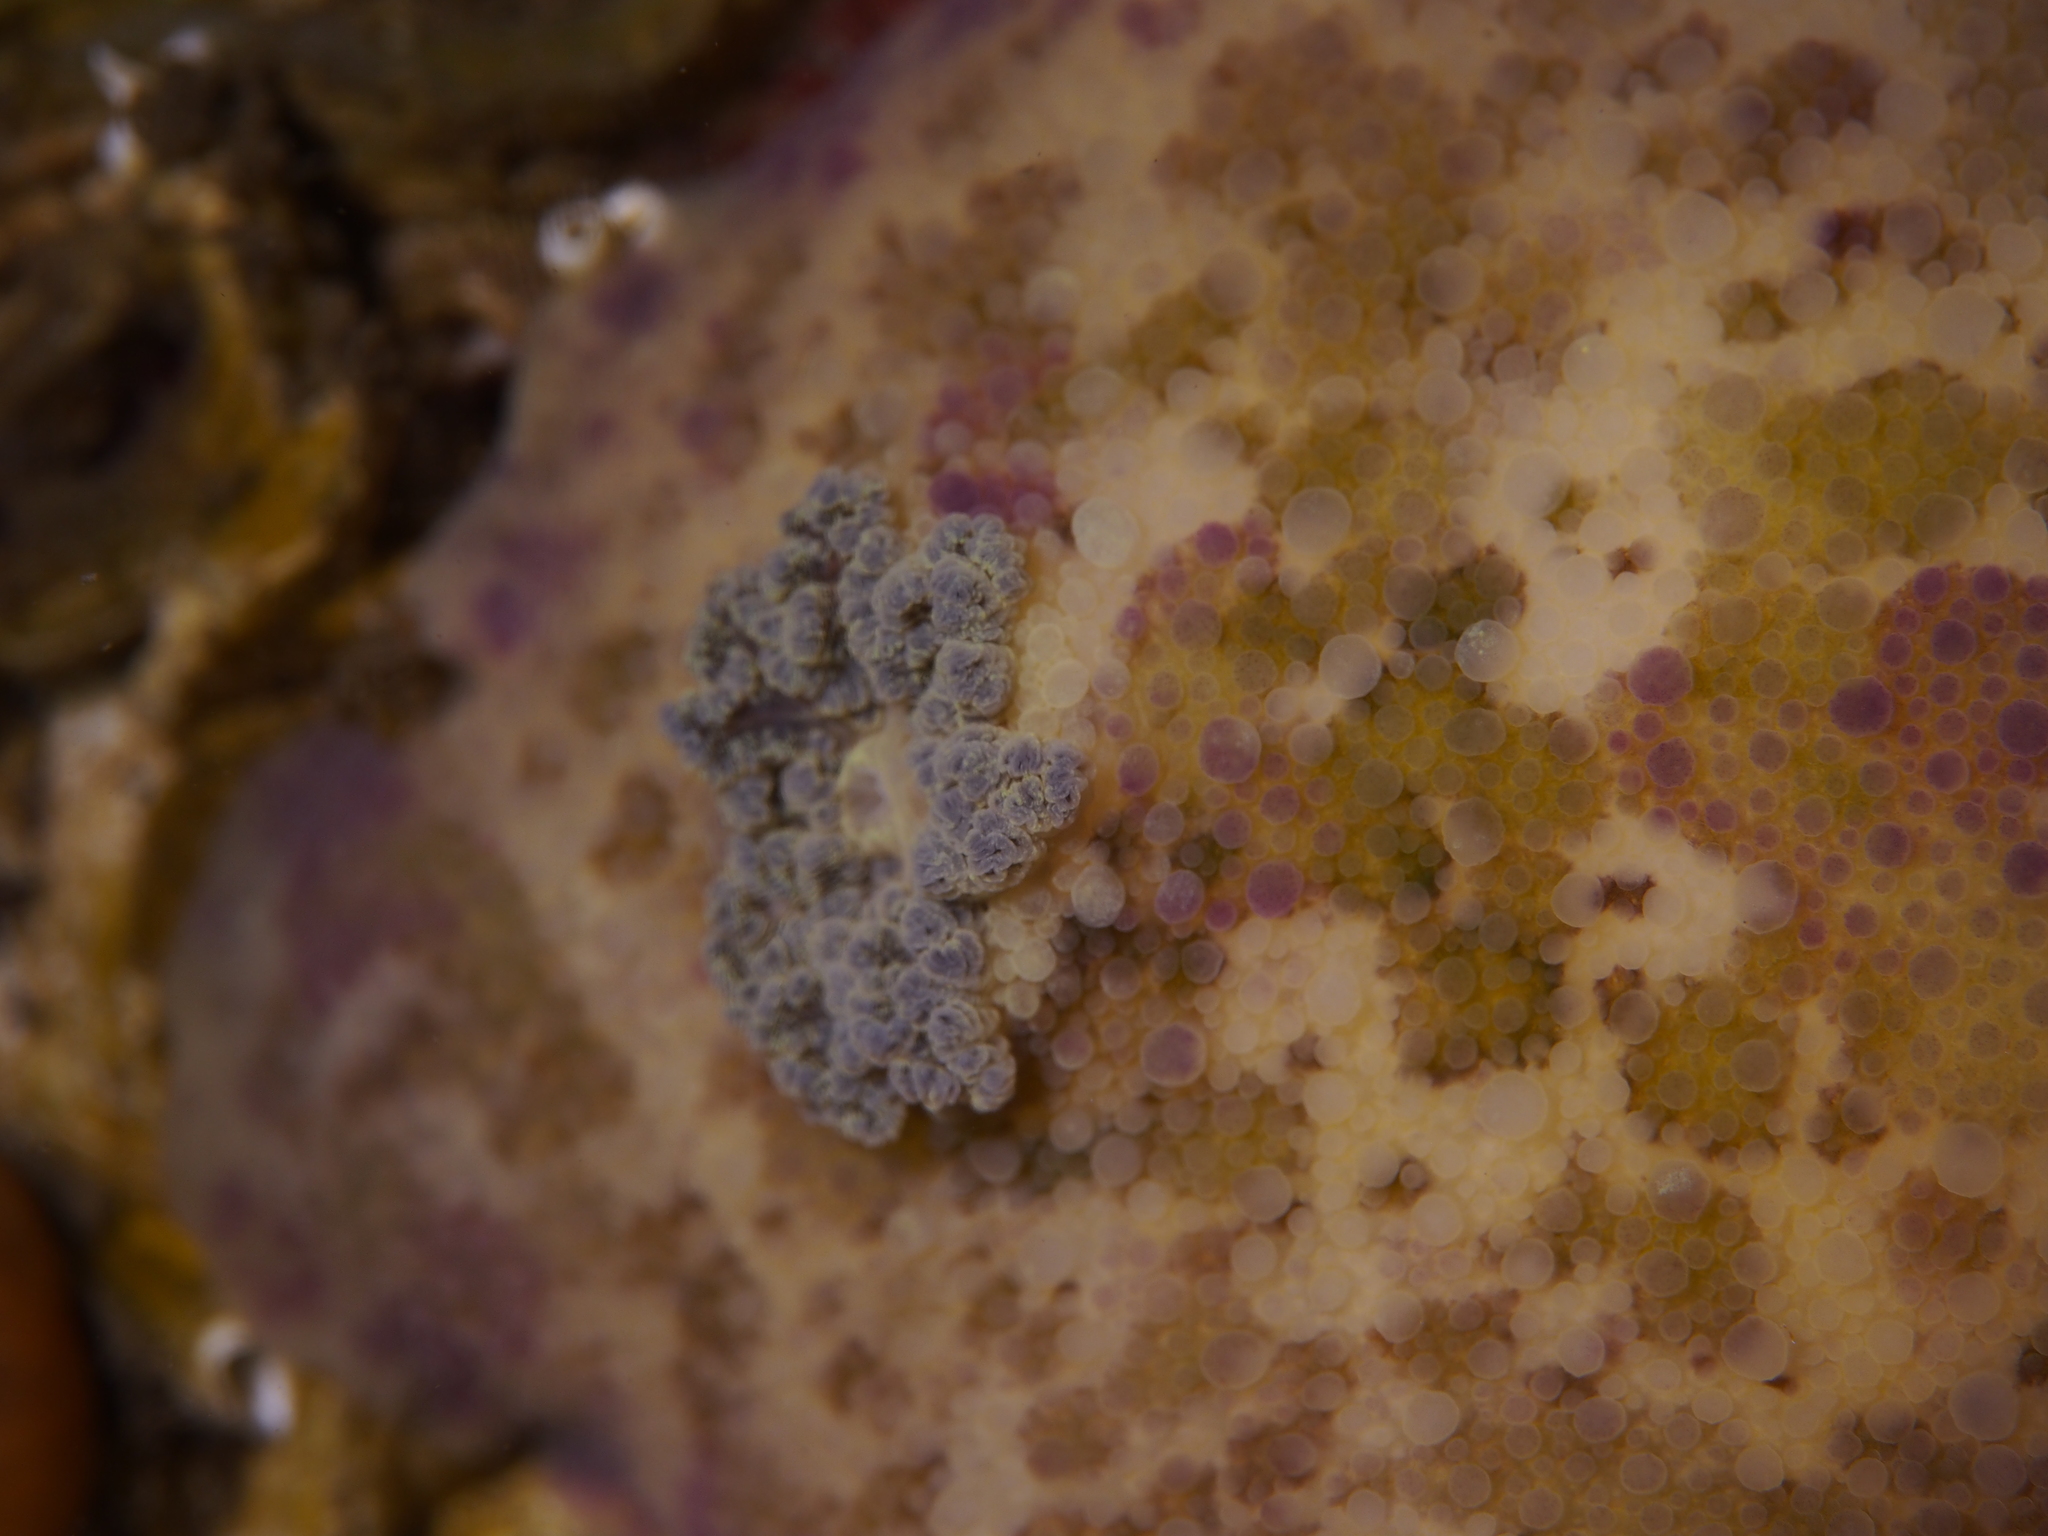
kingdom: Animalia
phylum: Mollusca
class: Gastropoda
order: Nudibranchia
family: Dorididae
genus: Doris
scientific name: Doris pseudoargus
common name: Sea lemon
